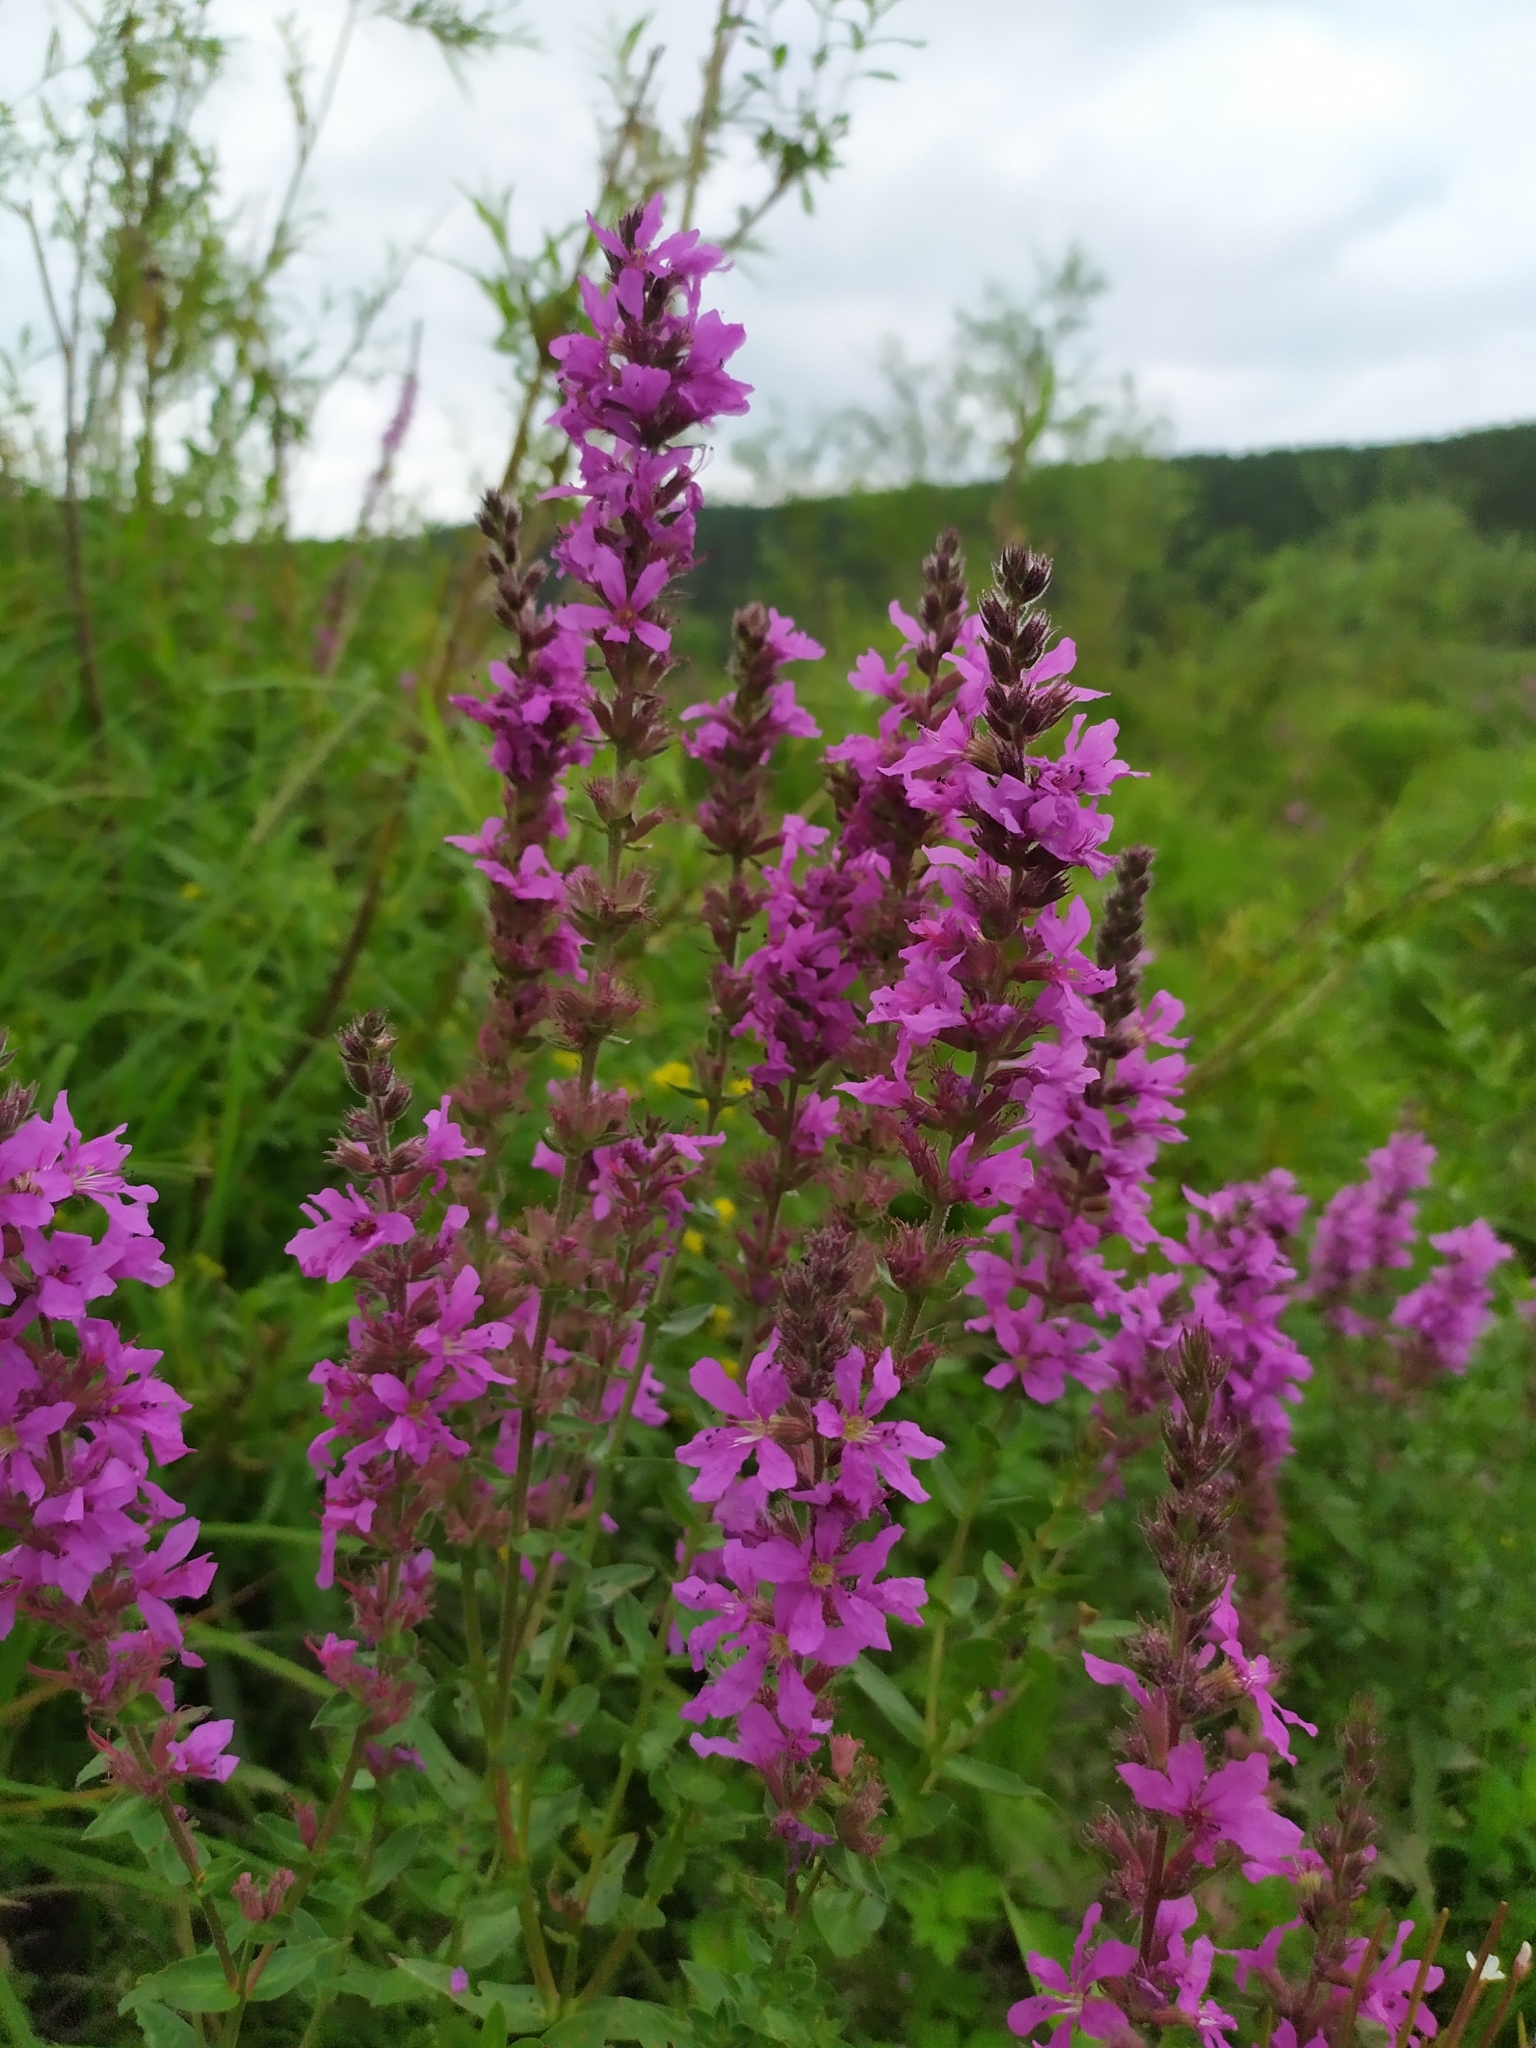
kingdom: Plantae
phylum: Tracheophyta
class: Magnoliopsida
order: Myrtales
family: Lythraceae
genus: Lythrum
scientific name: Lythrum salicaria
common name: Purple loosestrife
